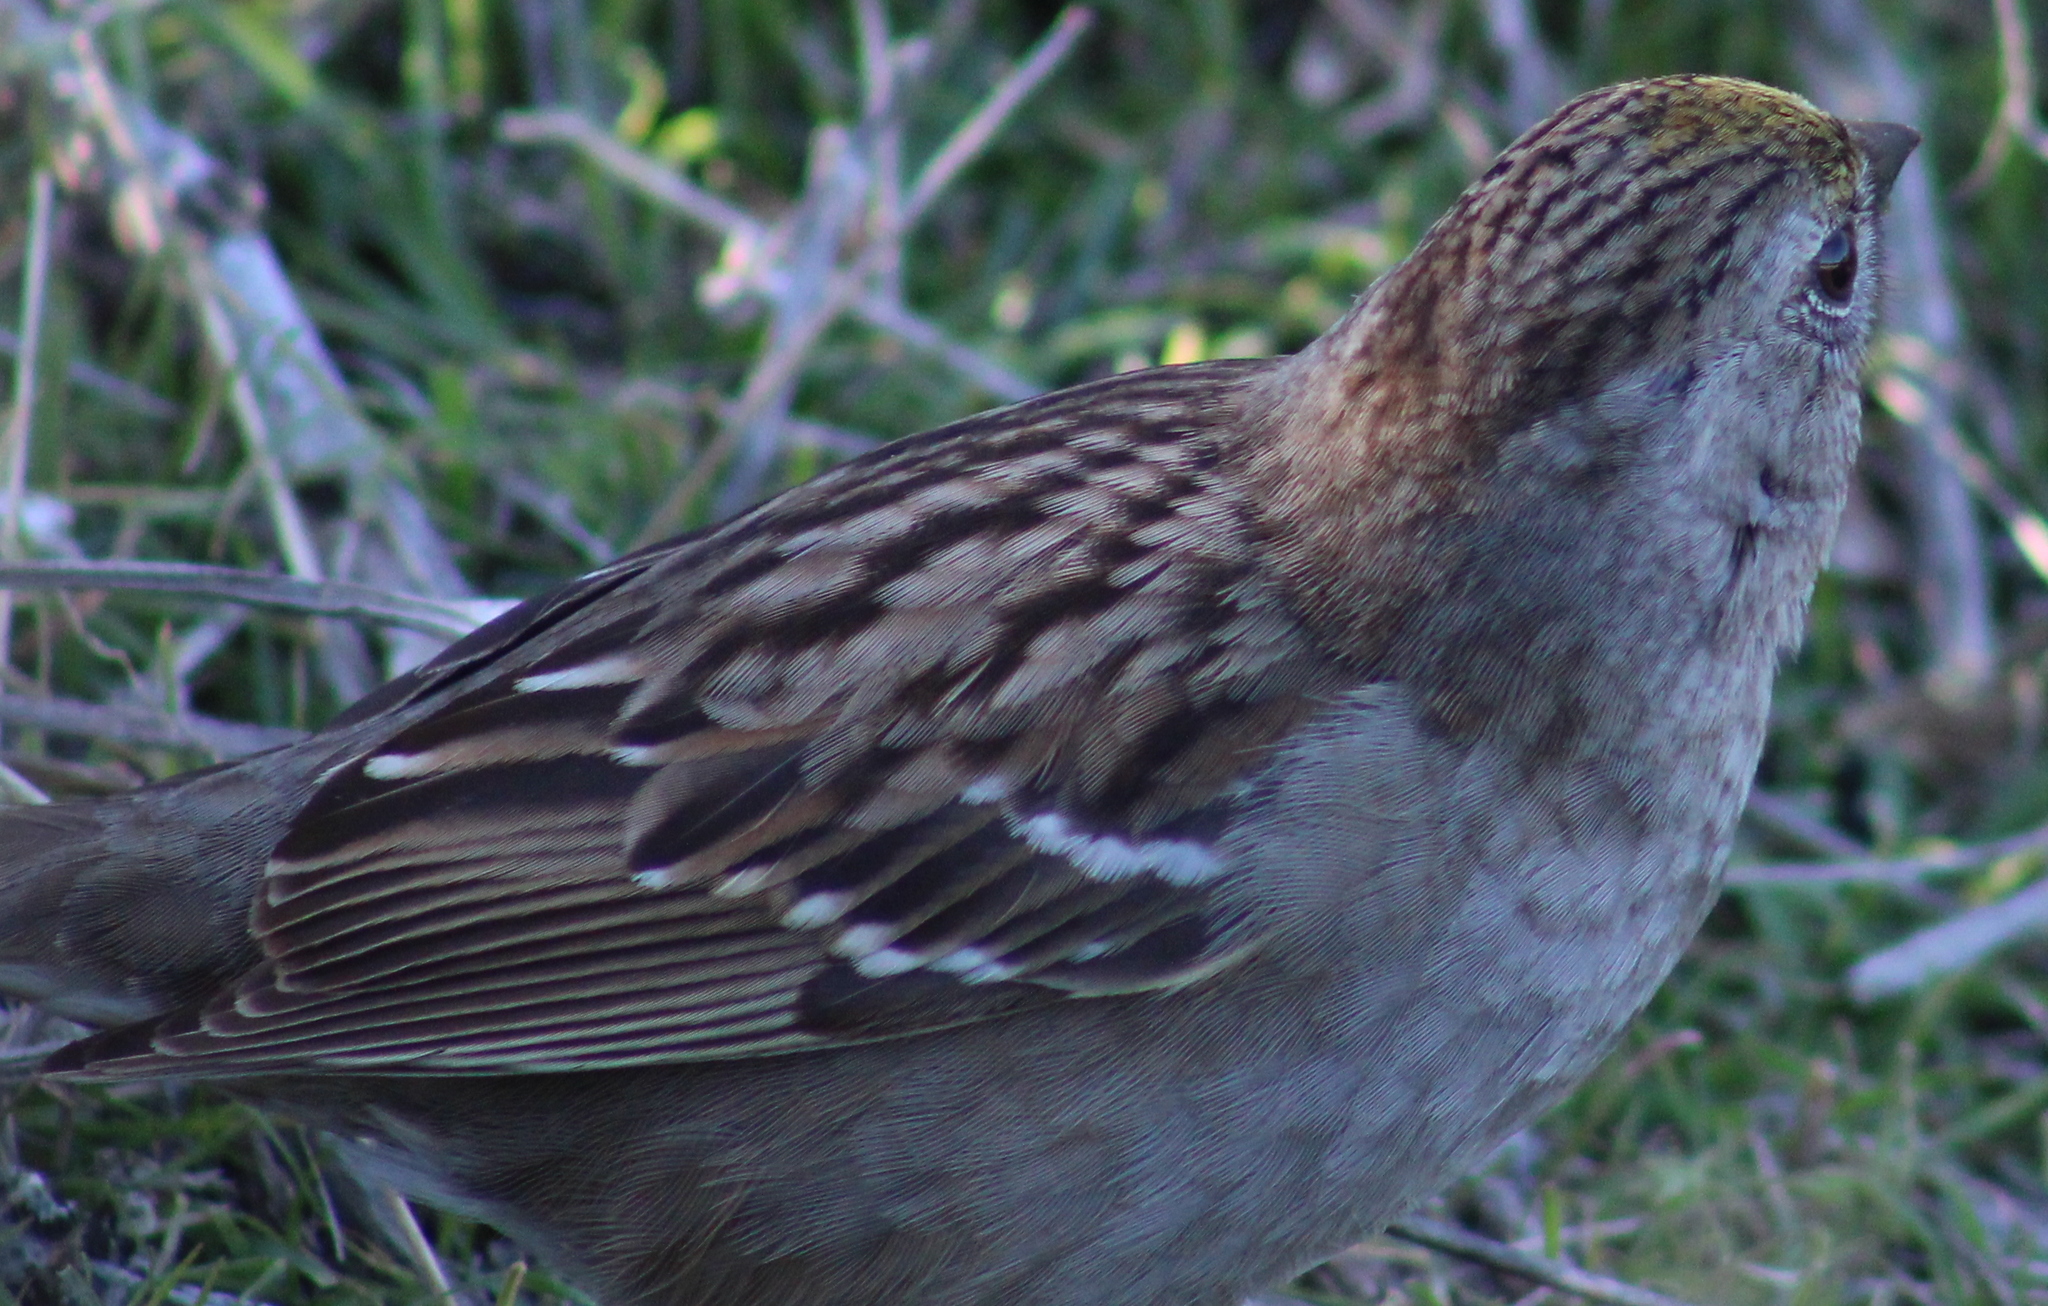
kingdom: Animalia
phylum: Chordata
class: Aves
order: Passeriformes
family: Passerellidae
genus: Zonotrichia
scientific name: Zonotrichia atricapilla
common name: Golden-crowned sparrow
